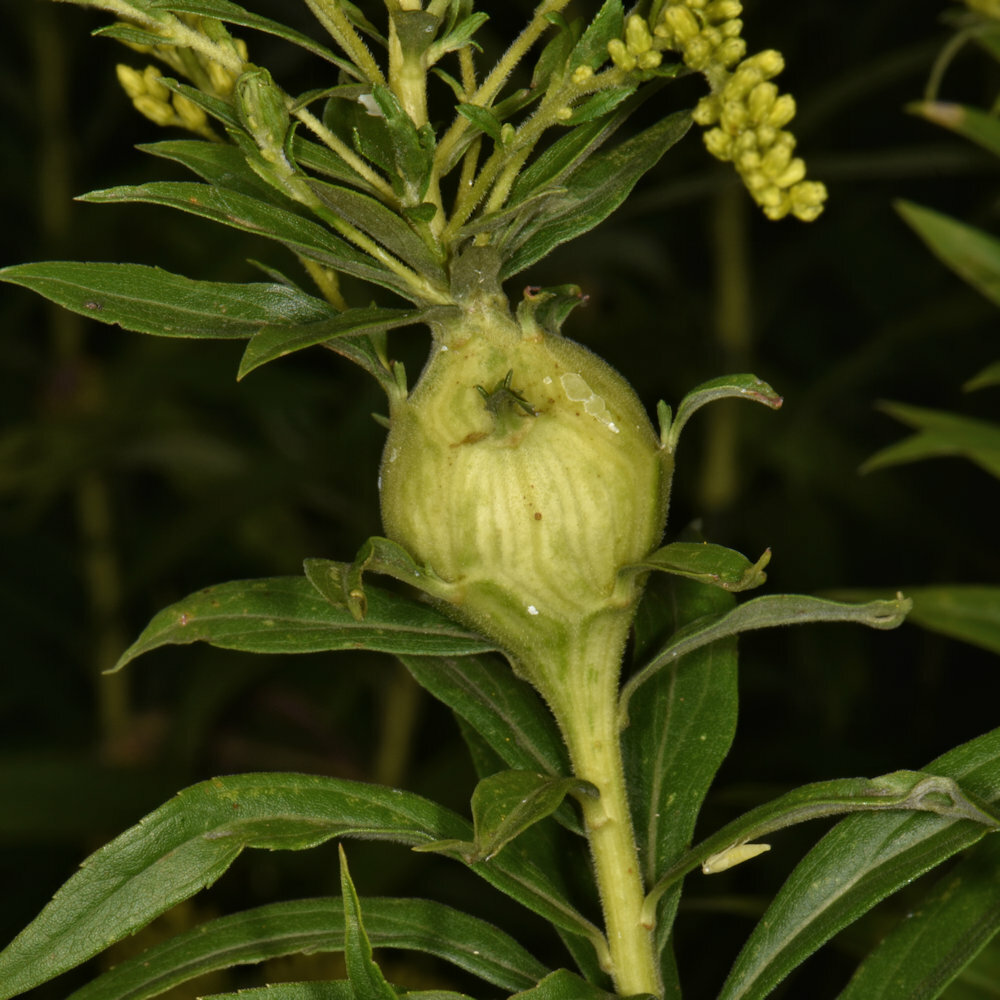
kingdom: Animalia
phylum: Arthropoda
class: Insecta
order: Diptera
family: Tephritidae
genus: Eurosta
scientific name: Eurosta solidaginis
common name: Goldenrod gall fly
